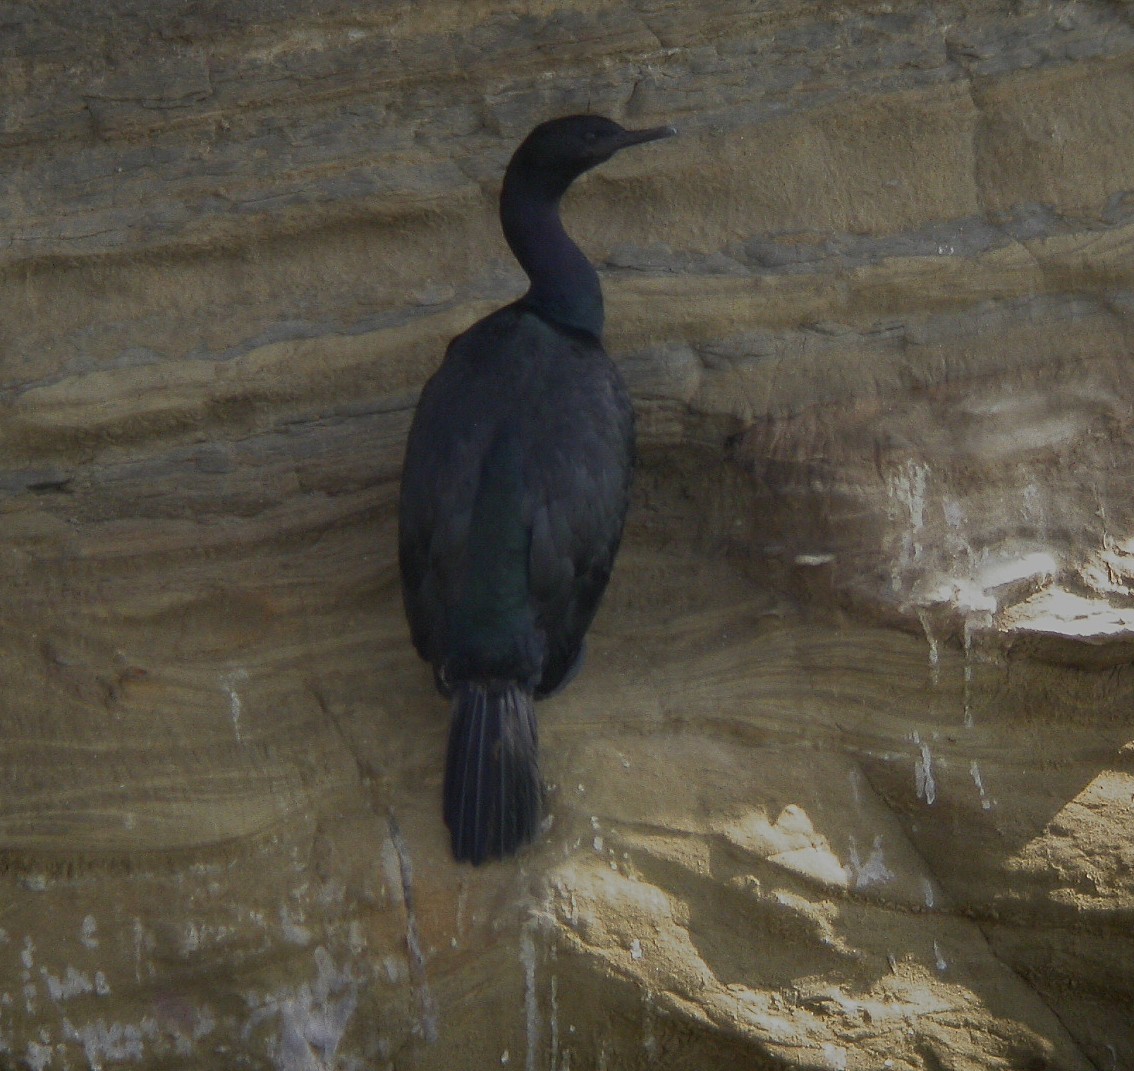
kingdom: Animalia
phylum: Chordata
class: Aves
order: Suliformes
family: Phalacrocoracidae
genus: Phalacrocorax
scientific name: Phalacrocorax pelagicus
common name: Pelagic cormorant
